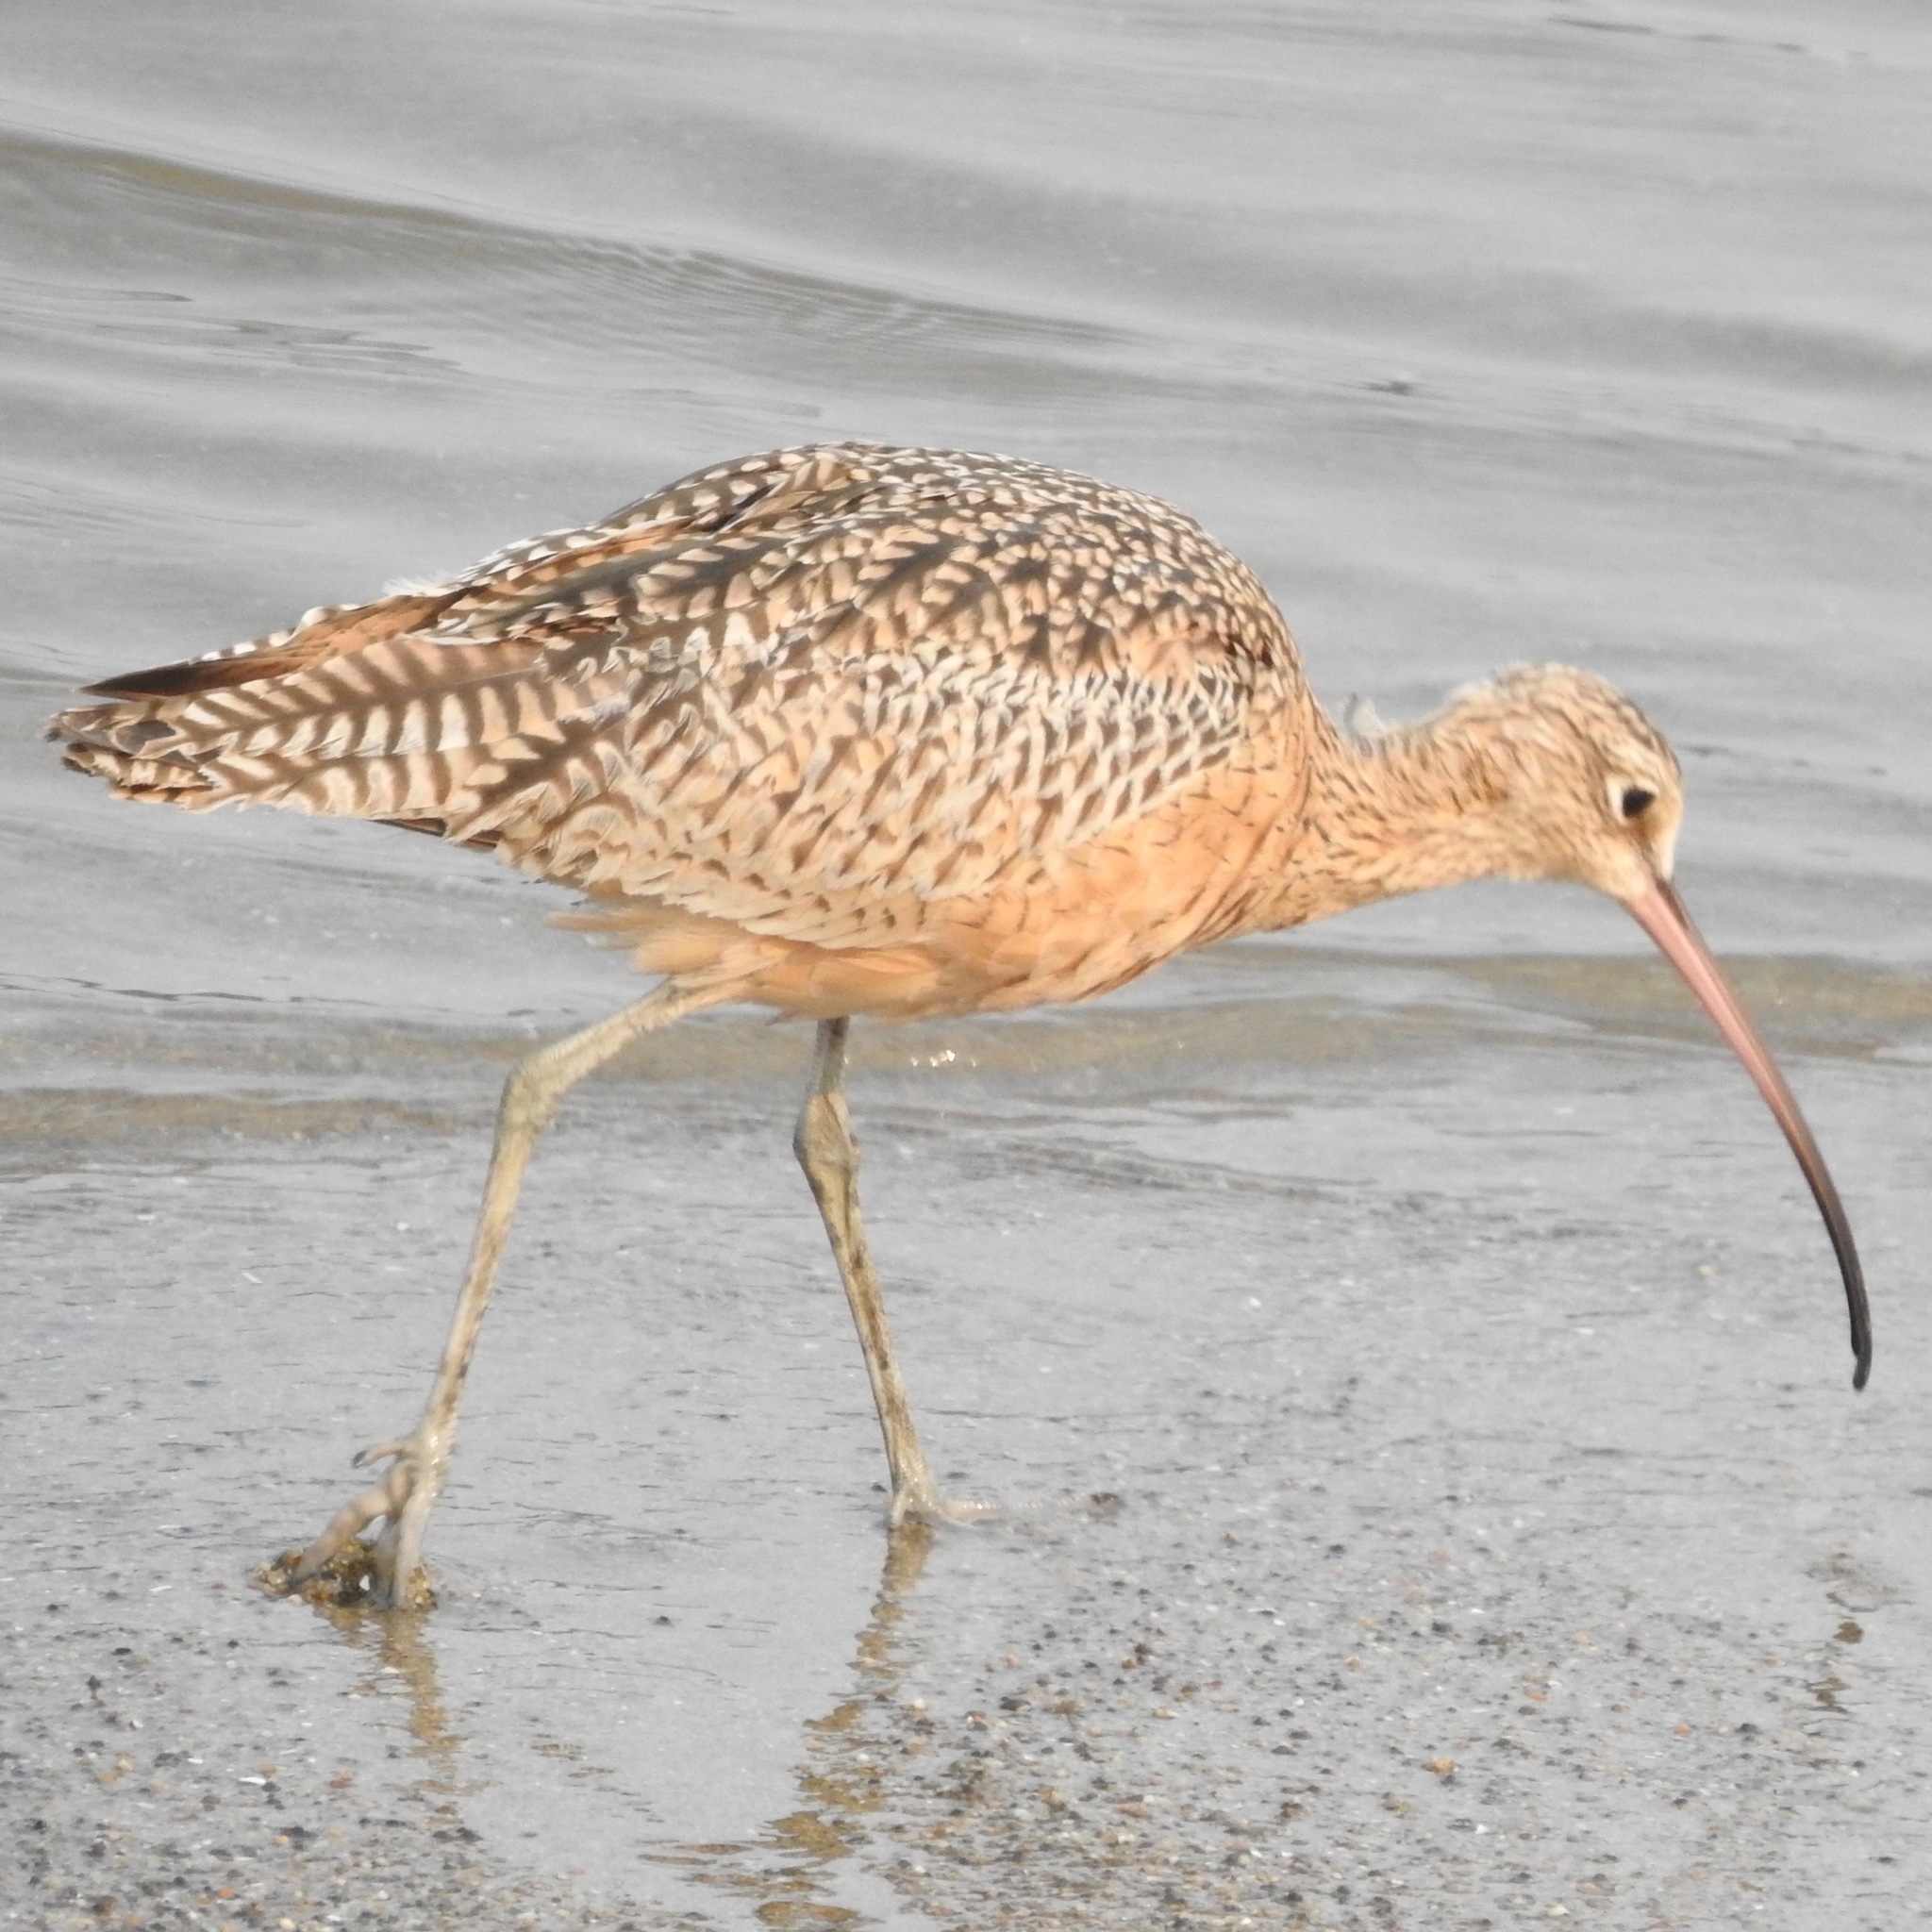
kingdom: Animalia
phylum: Chordata
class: Aves
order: Charadriiformes
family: Scolopacidae
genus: Numenius
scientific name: Numenius americanus
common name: Long-billed curlew
